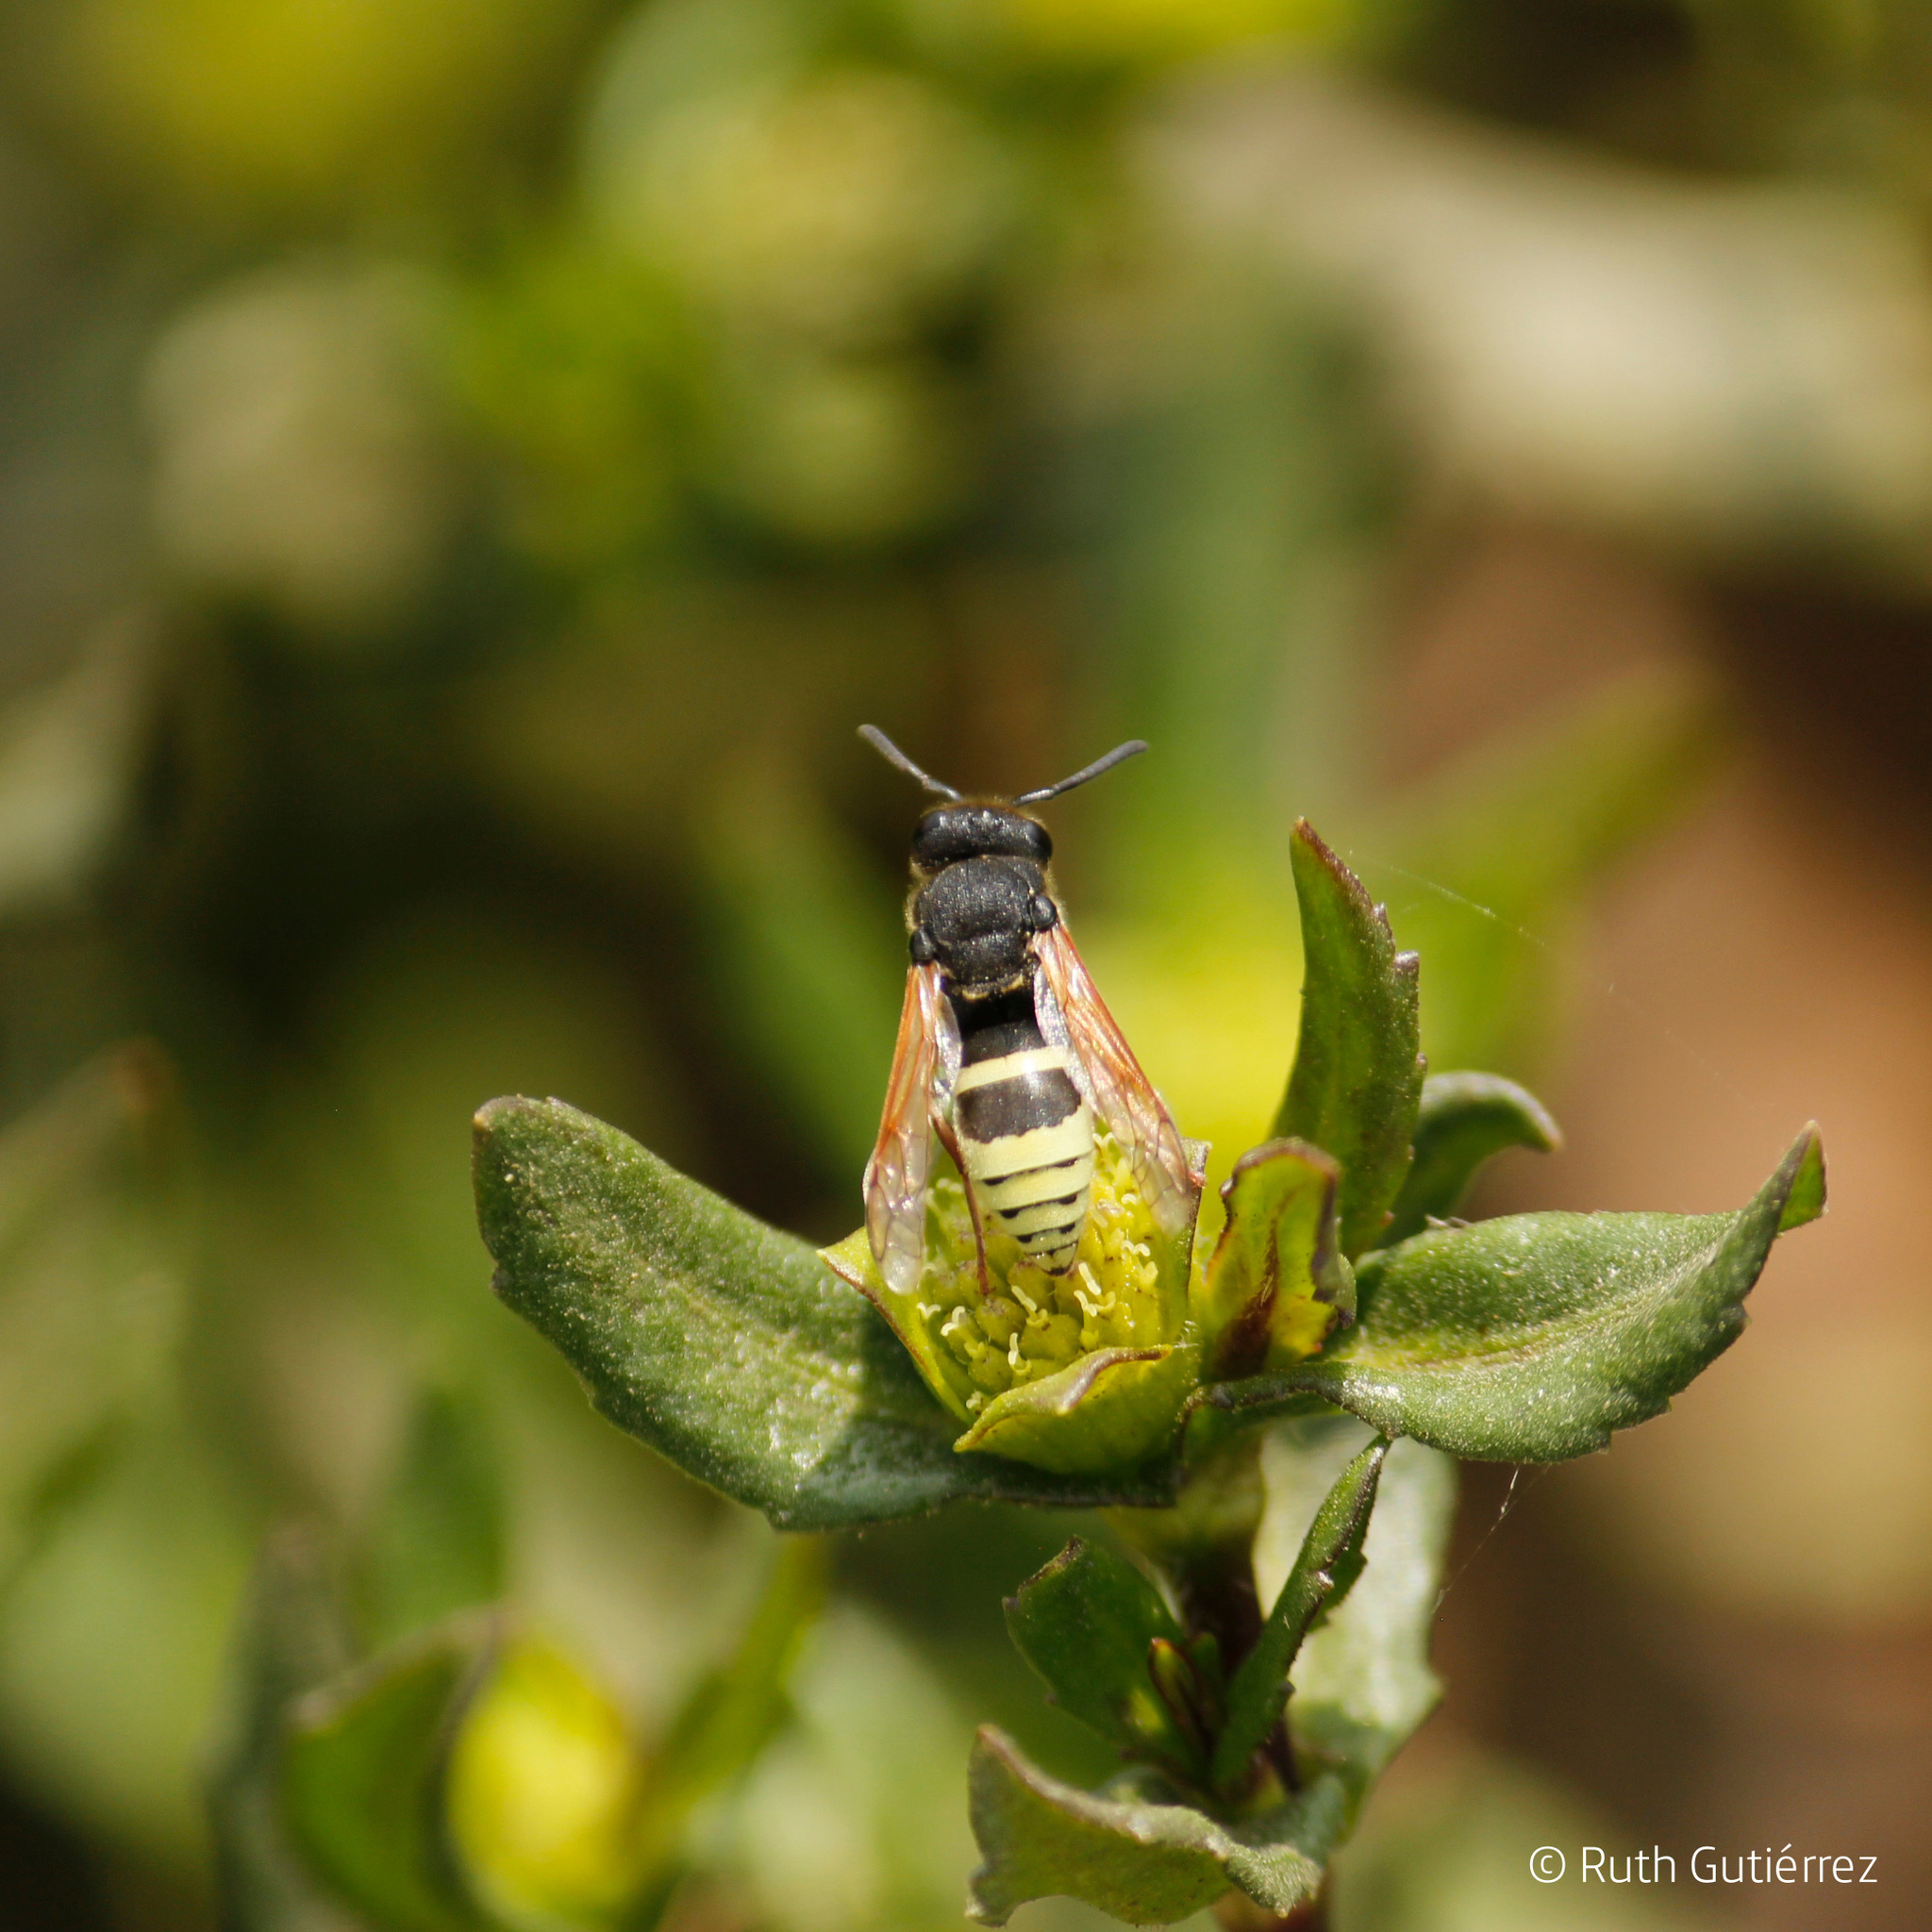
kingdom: Animalia
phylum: Arthropoda
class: Insecta
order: Hymenoptera
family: Eumenidae
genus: Pachodynerus
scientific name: Pachodynerus peruensis
